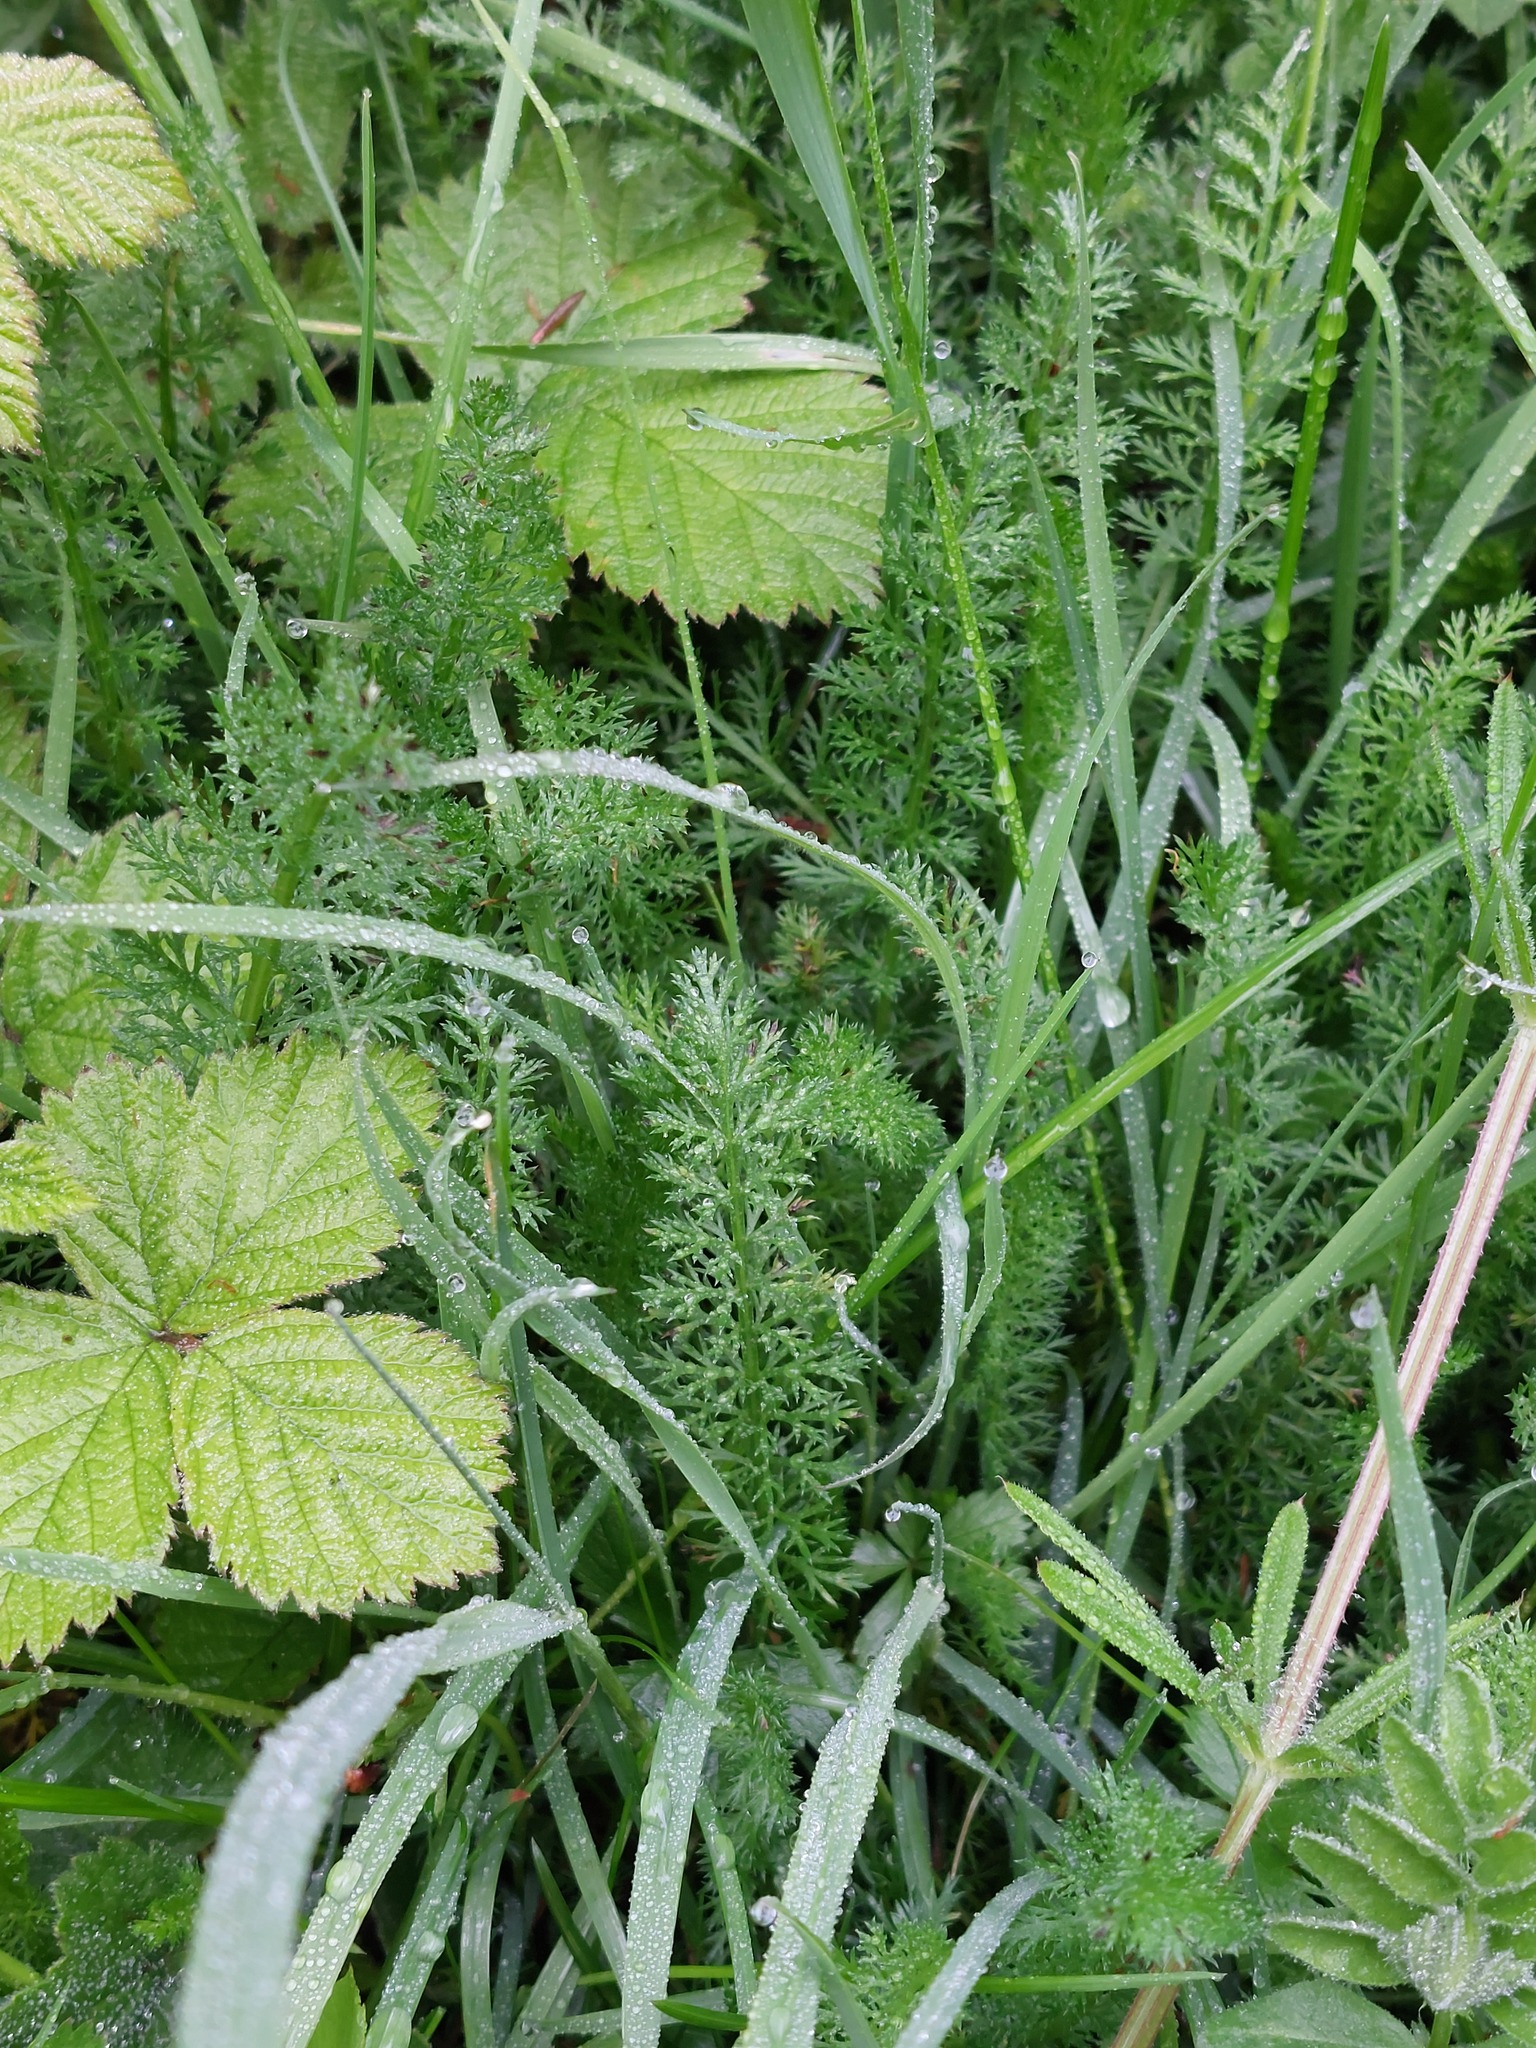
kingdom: Plantae
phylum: Tracheophyta
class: Magnoliopsida
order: Asterales
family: Asteraceae
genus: Achillea
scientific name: Achillea millefolium
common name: Yarrow
